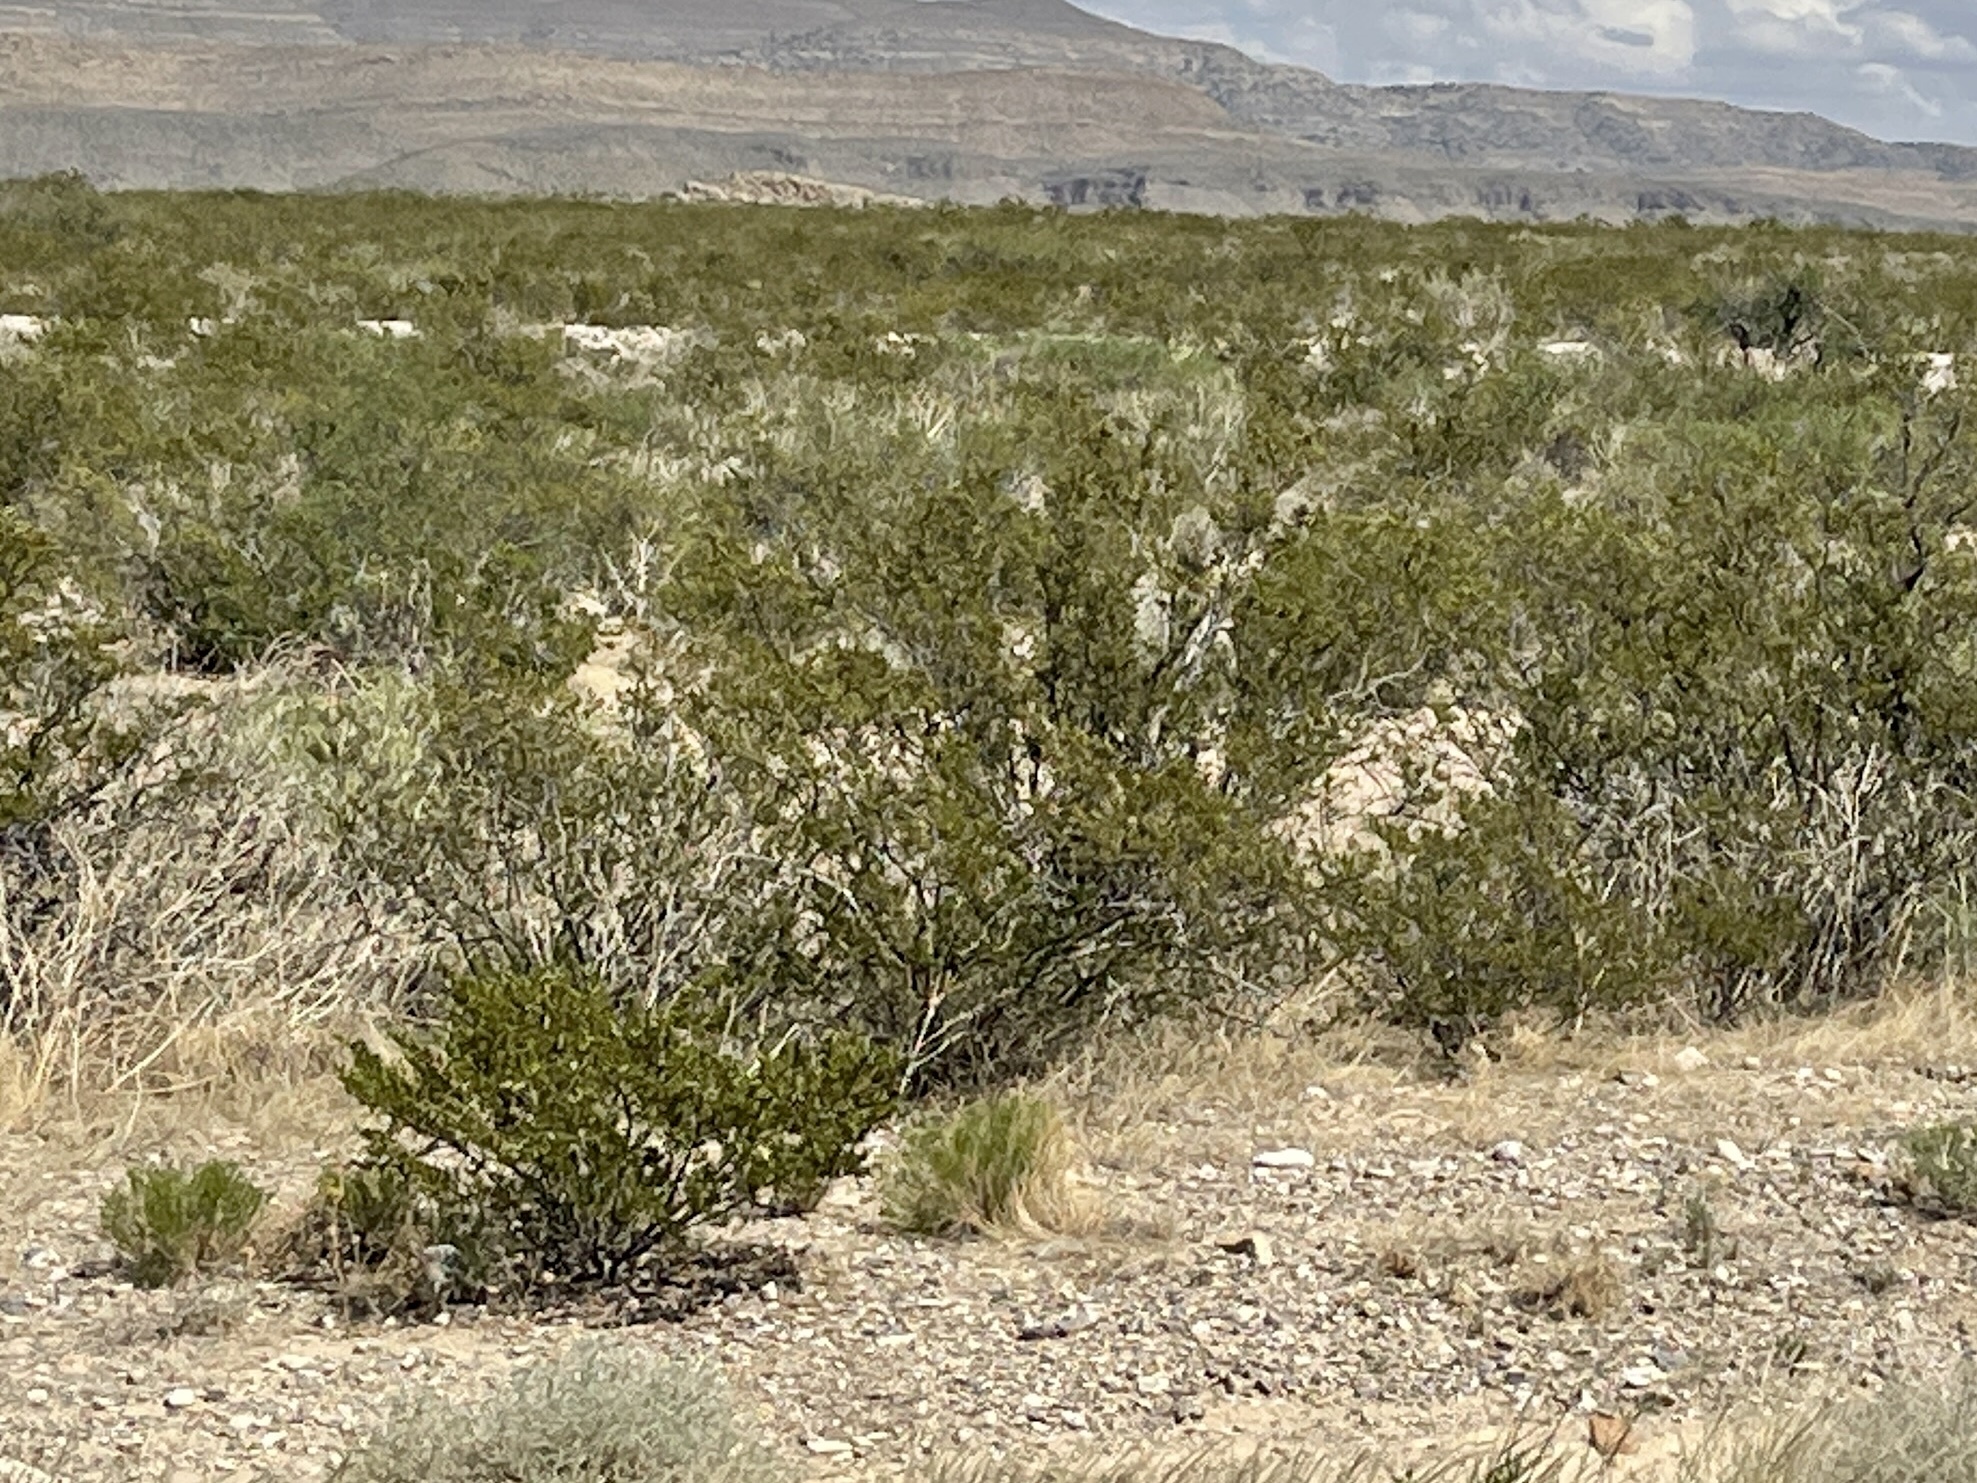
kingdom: Plantae
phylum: Tracheophyta
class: Magnoliopsida
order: Zygophyllales
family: Zygophyllaceae
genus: Larrea
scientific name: Larrea tridentata
